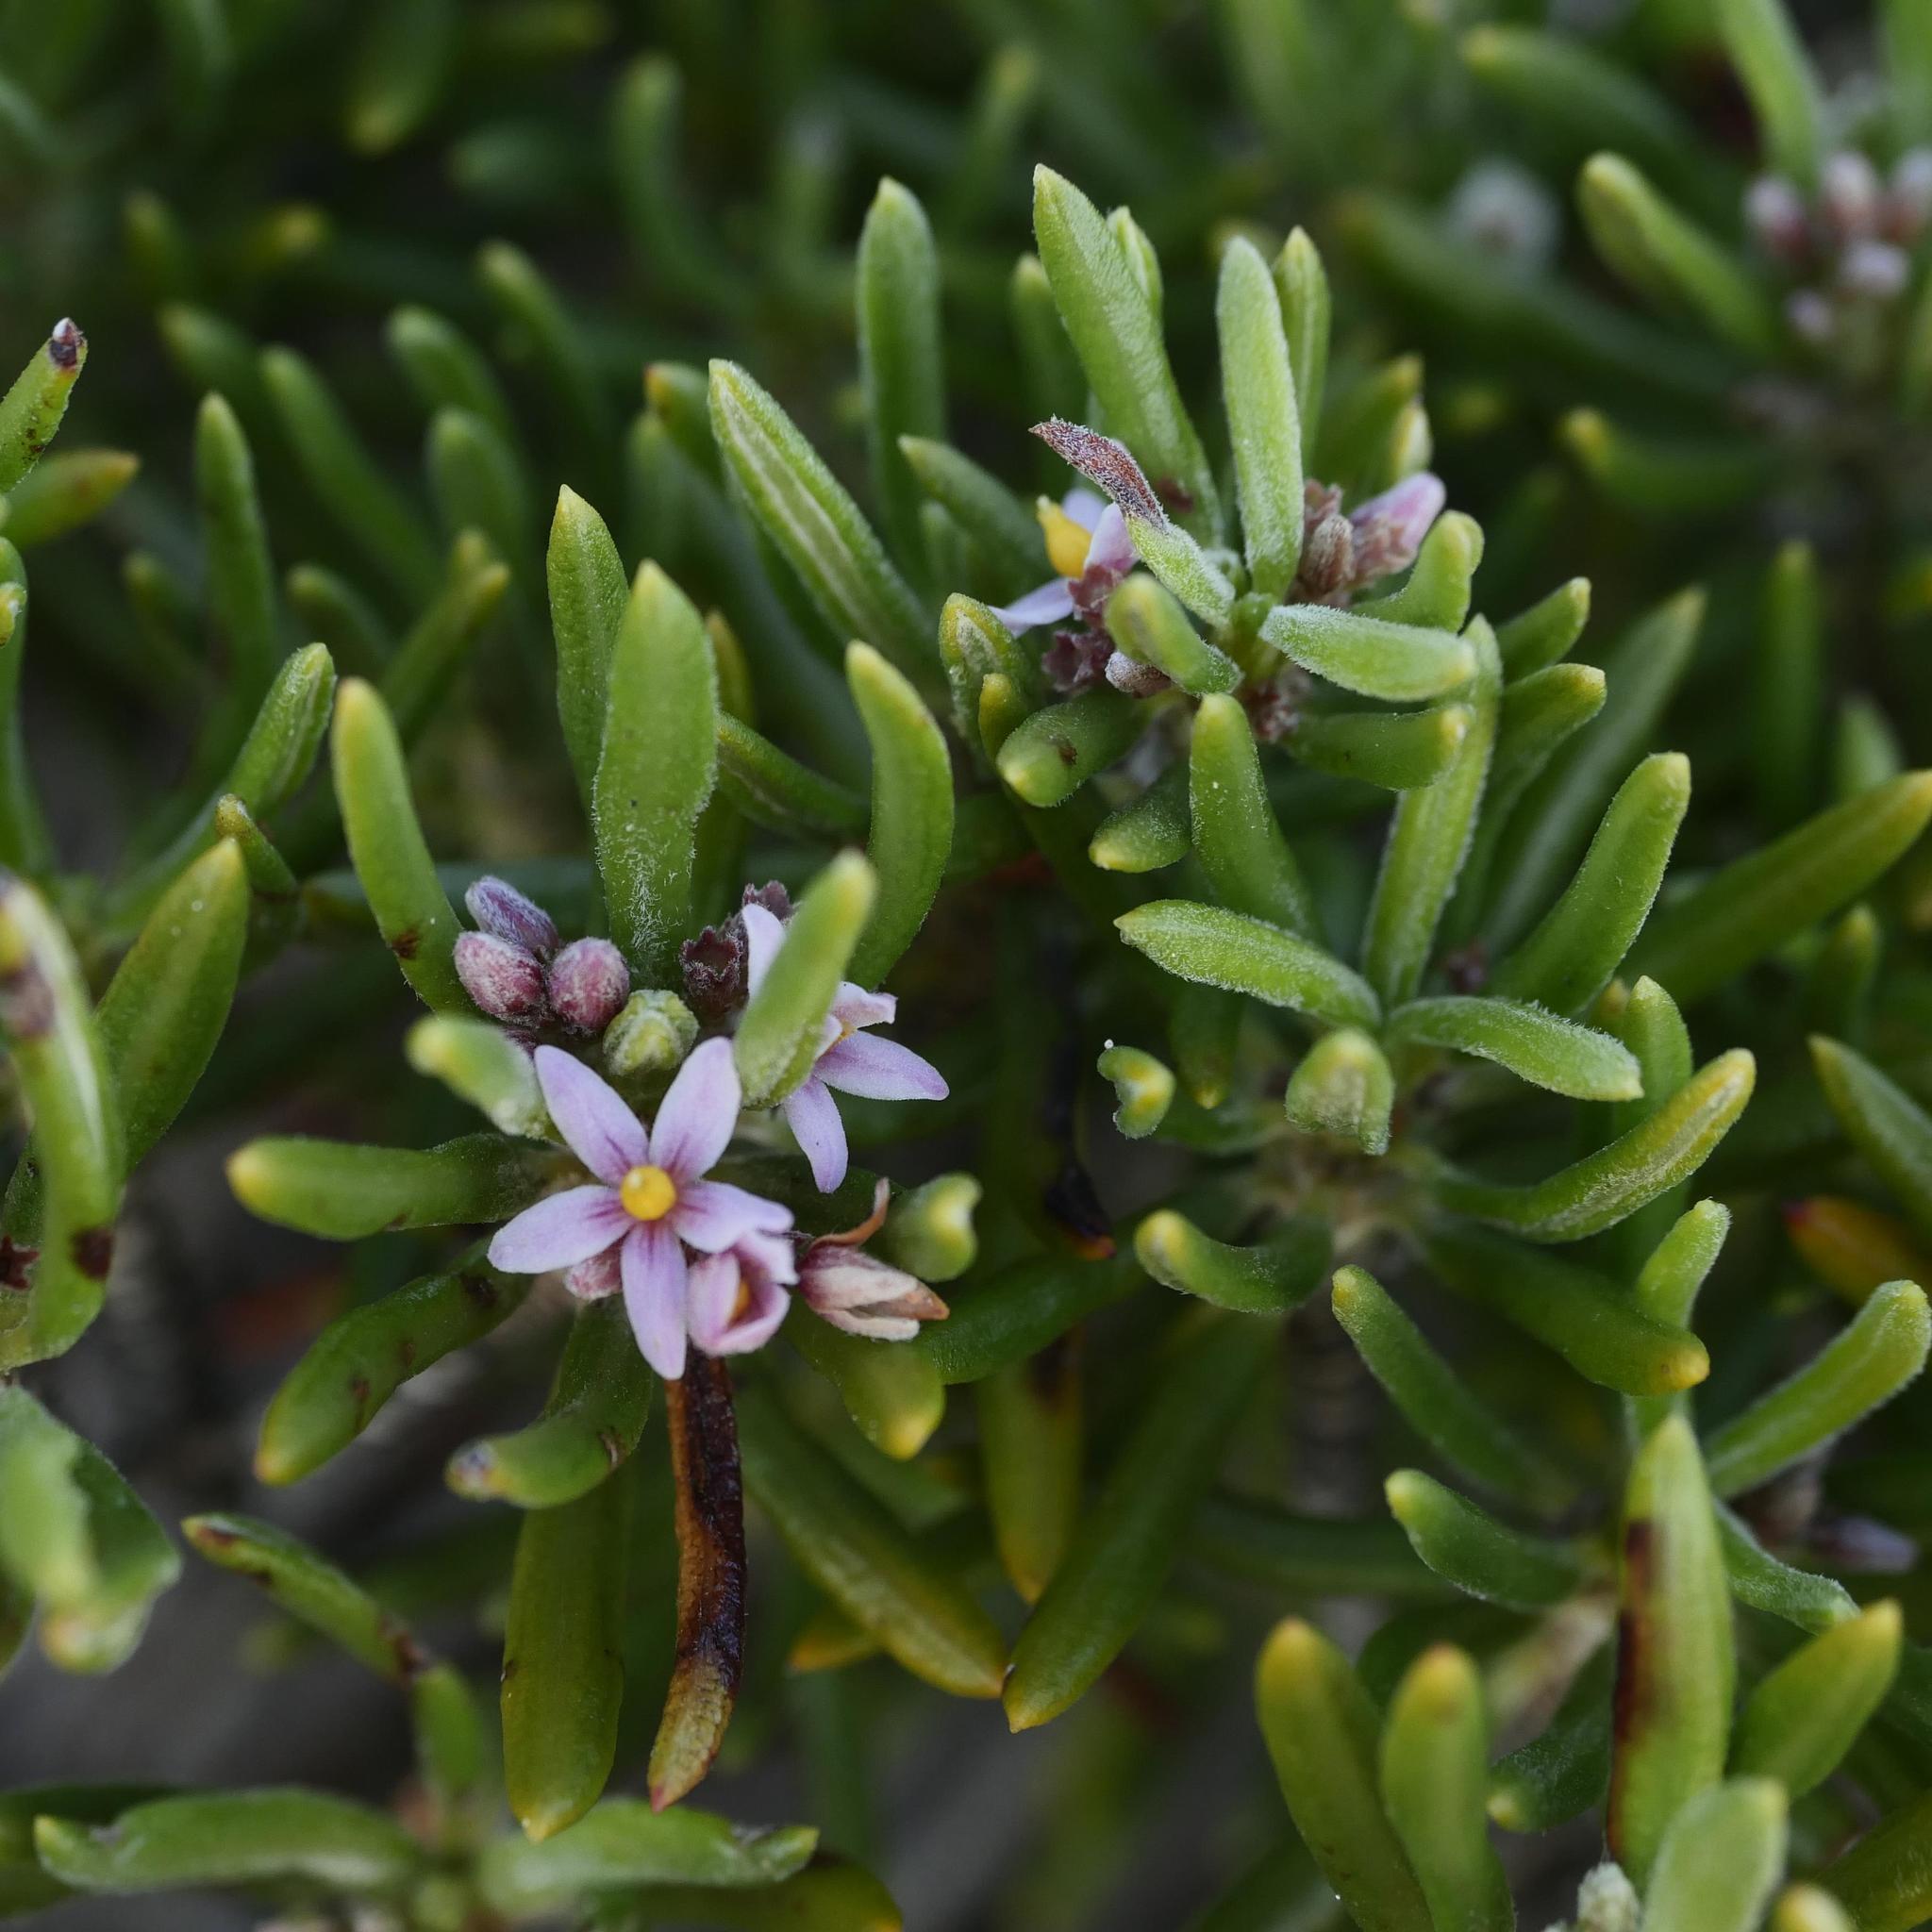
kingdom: Plantae
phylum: Tracheophyta
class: Magnoliopsida
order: Gentianales
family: Rubiaceae
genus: Strumpfia
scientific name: Strumpfia maritima
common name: Pride-of-big pine
